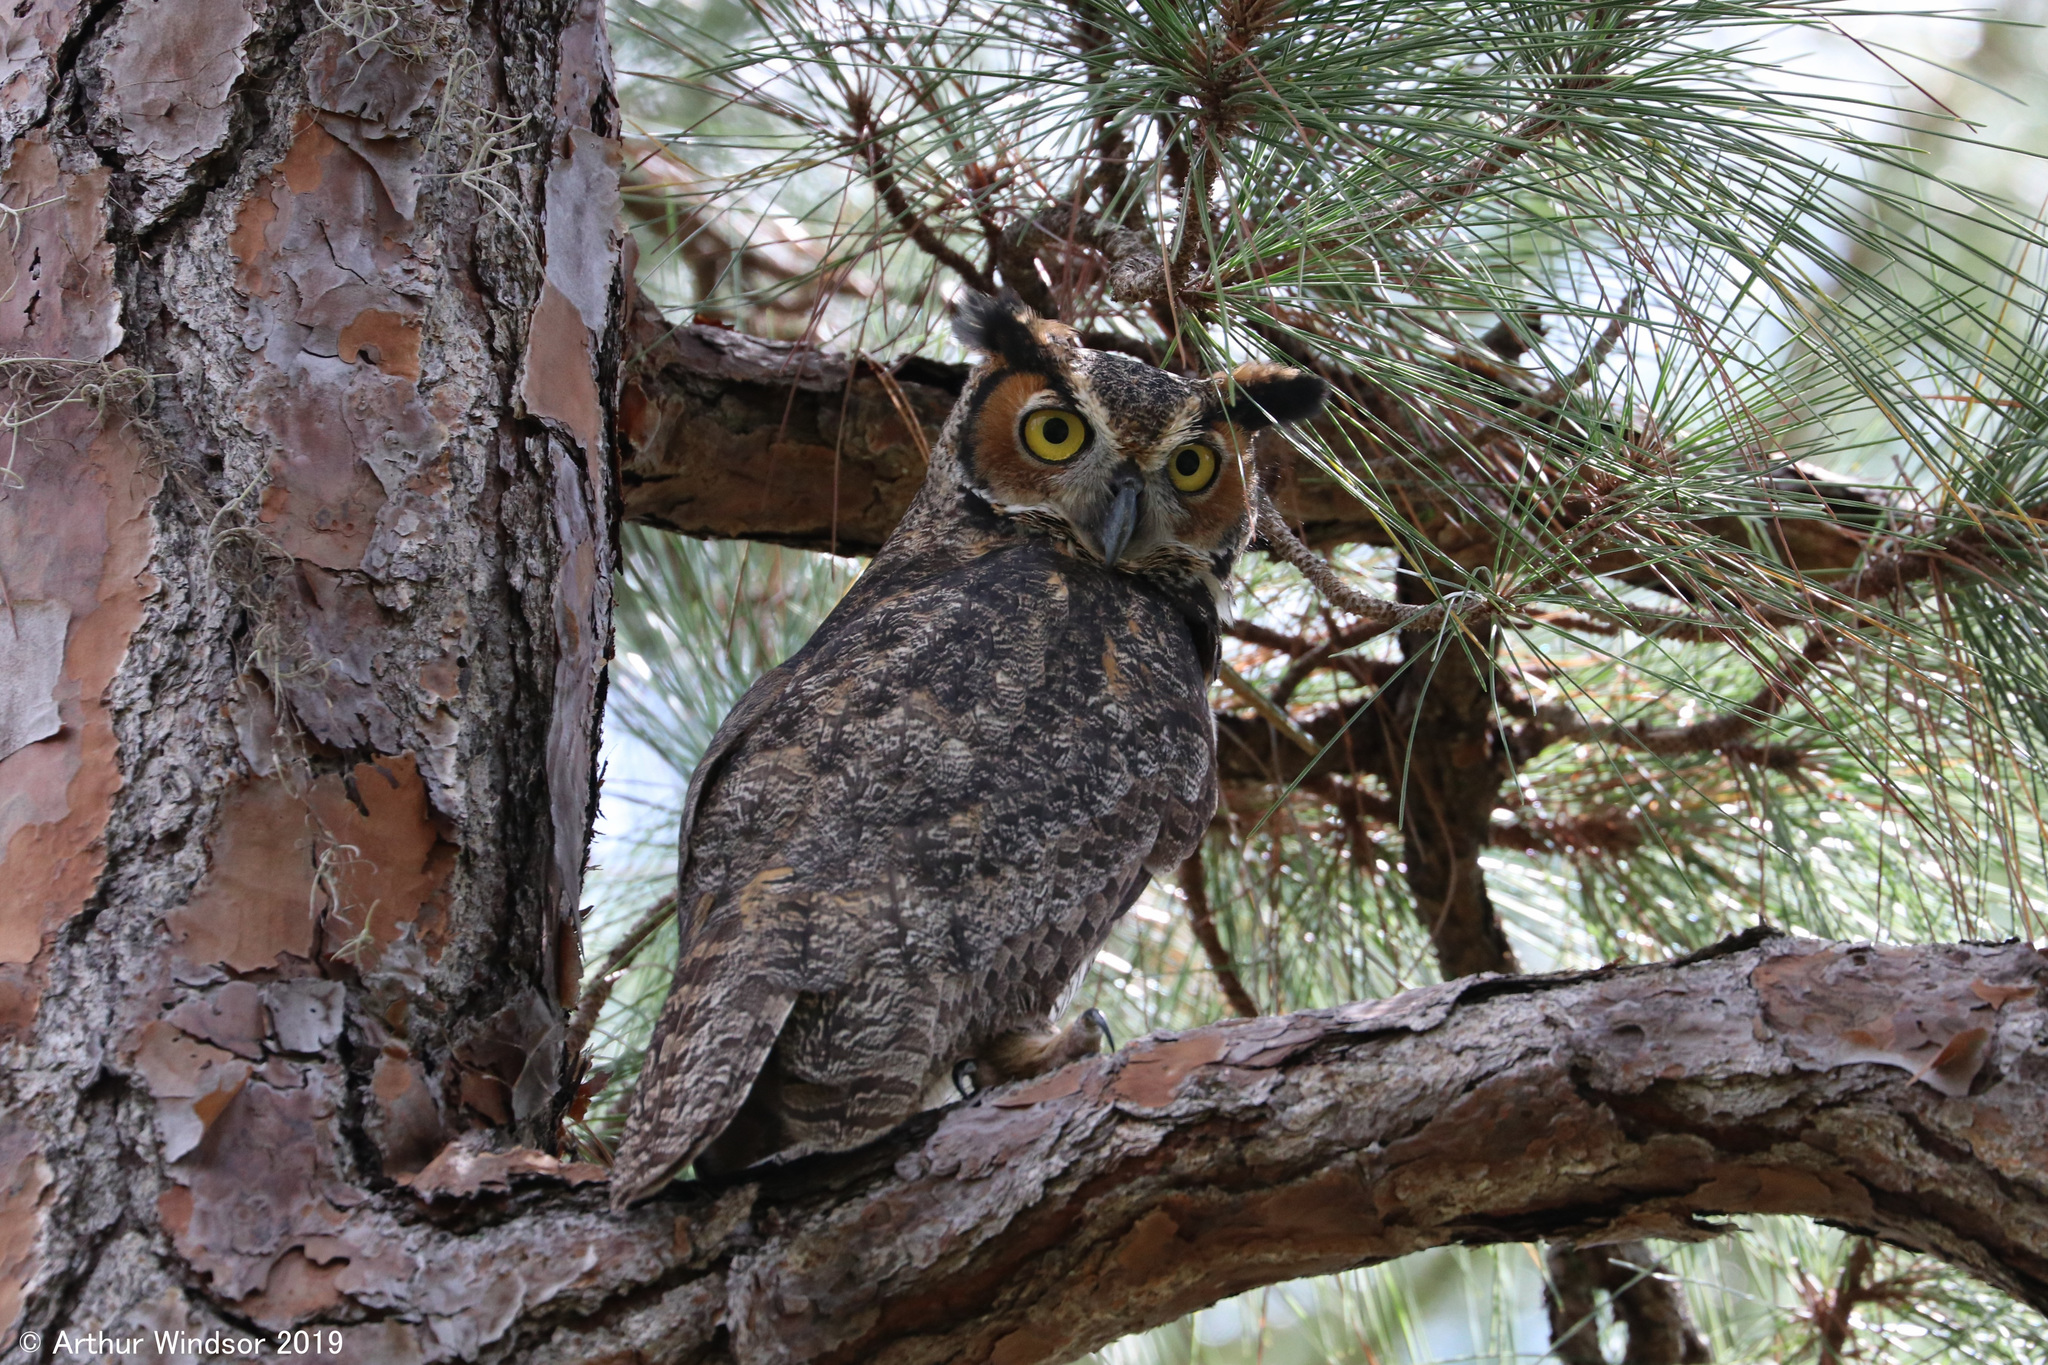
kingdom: Animalia
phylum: Chordata
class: Aves
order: Strigiformes
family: Strigidae
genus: Bubo
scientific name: Bubo virginianus
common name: Great horned owl
